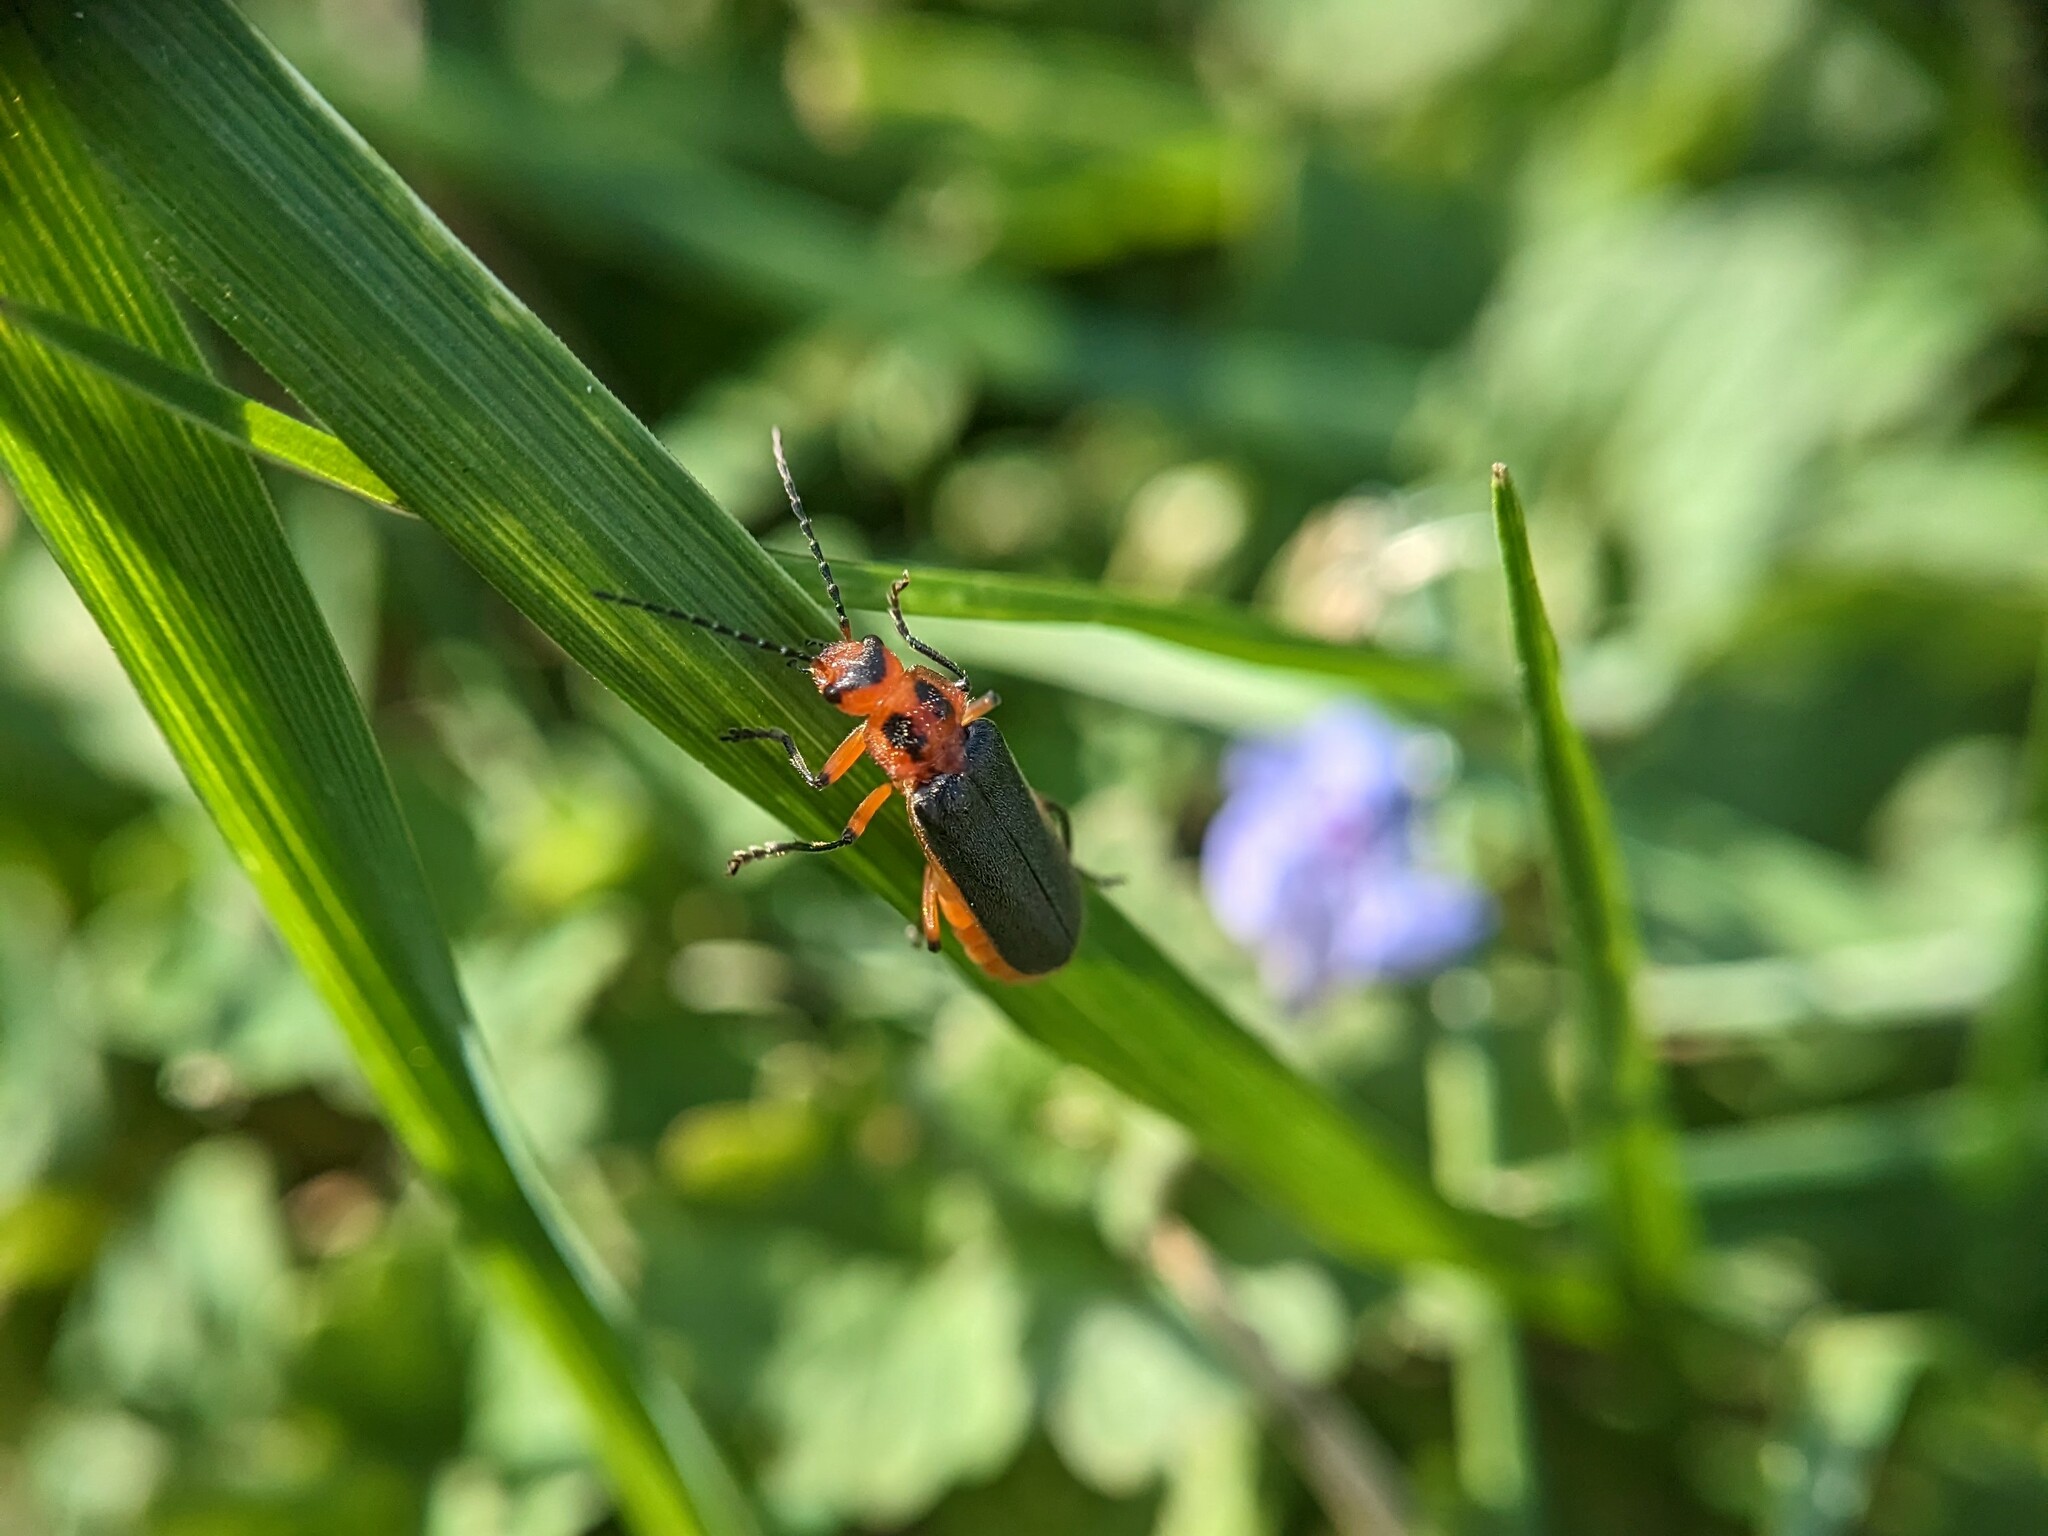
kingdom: Animalia
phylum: Arthropoda
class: Insecta
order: Coleoptera
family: Cantharidae
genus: Atalantycha
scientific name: Atalantycha bilineata
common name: Two-lined leatherwing
